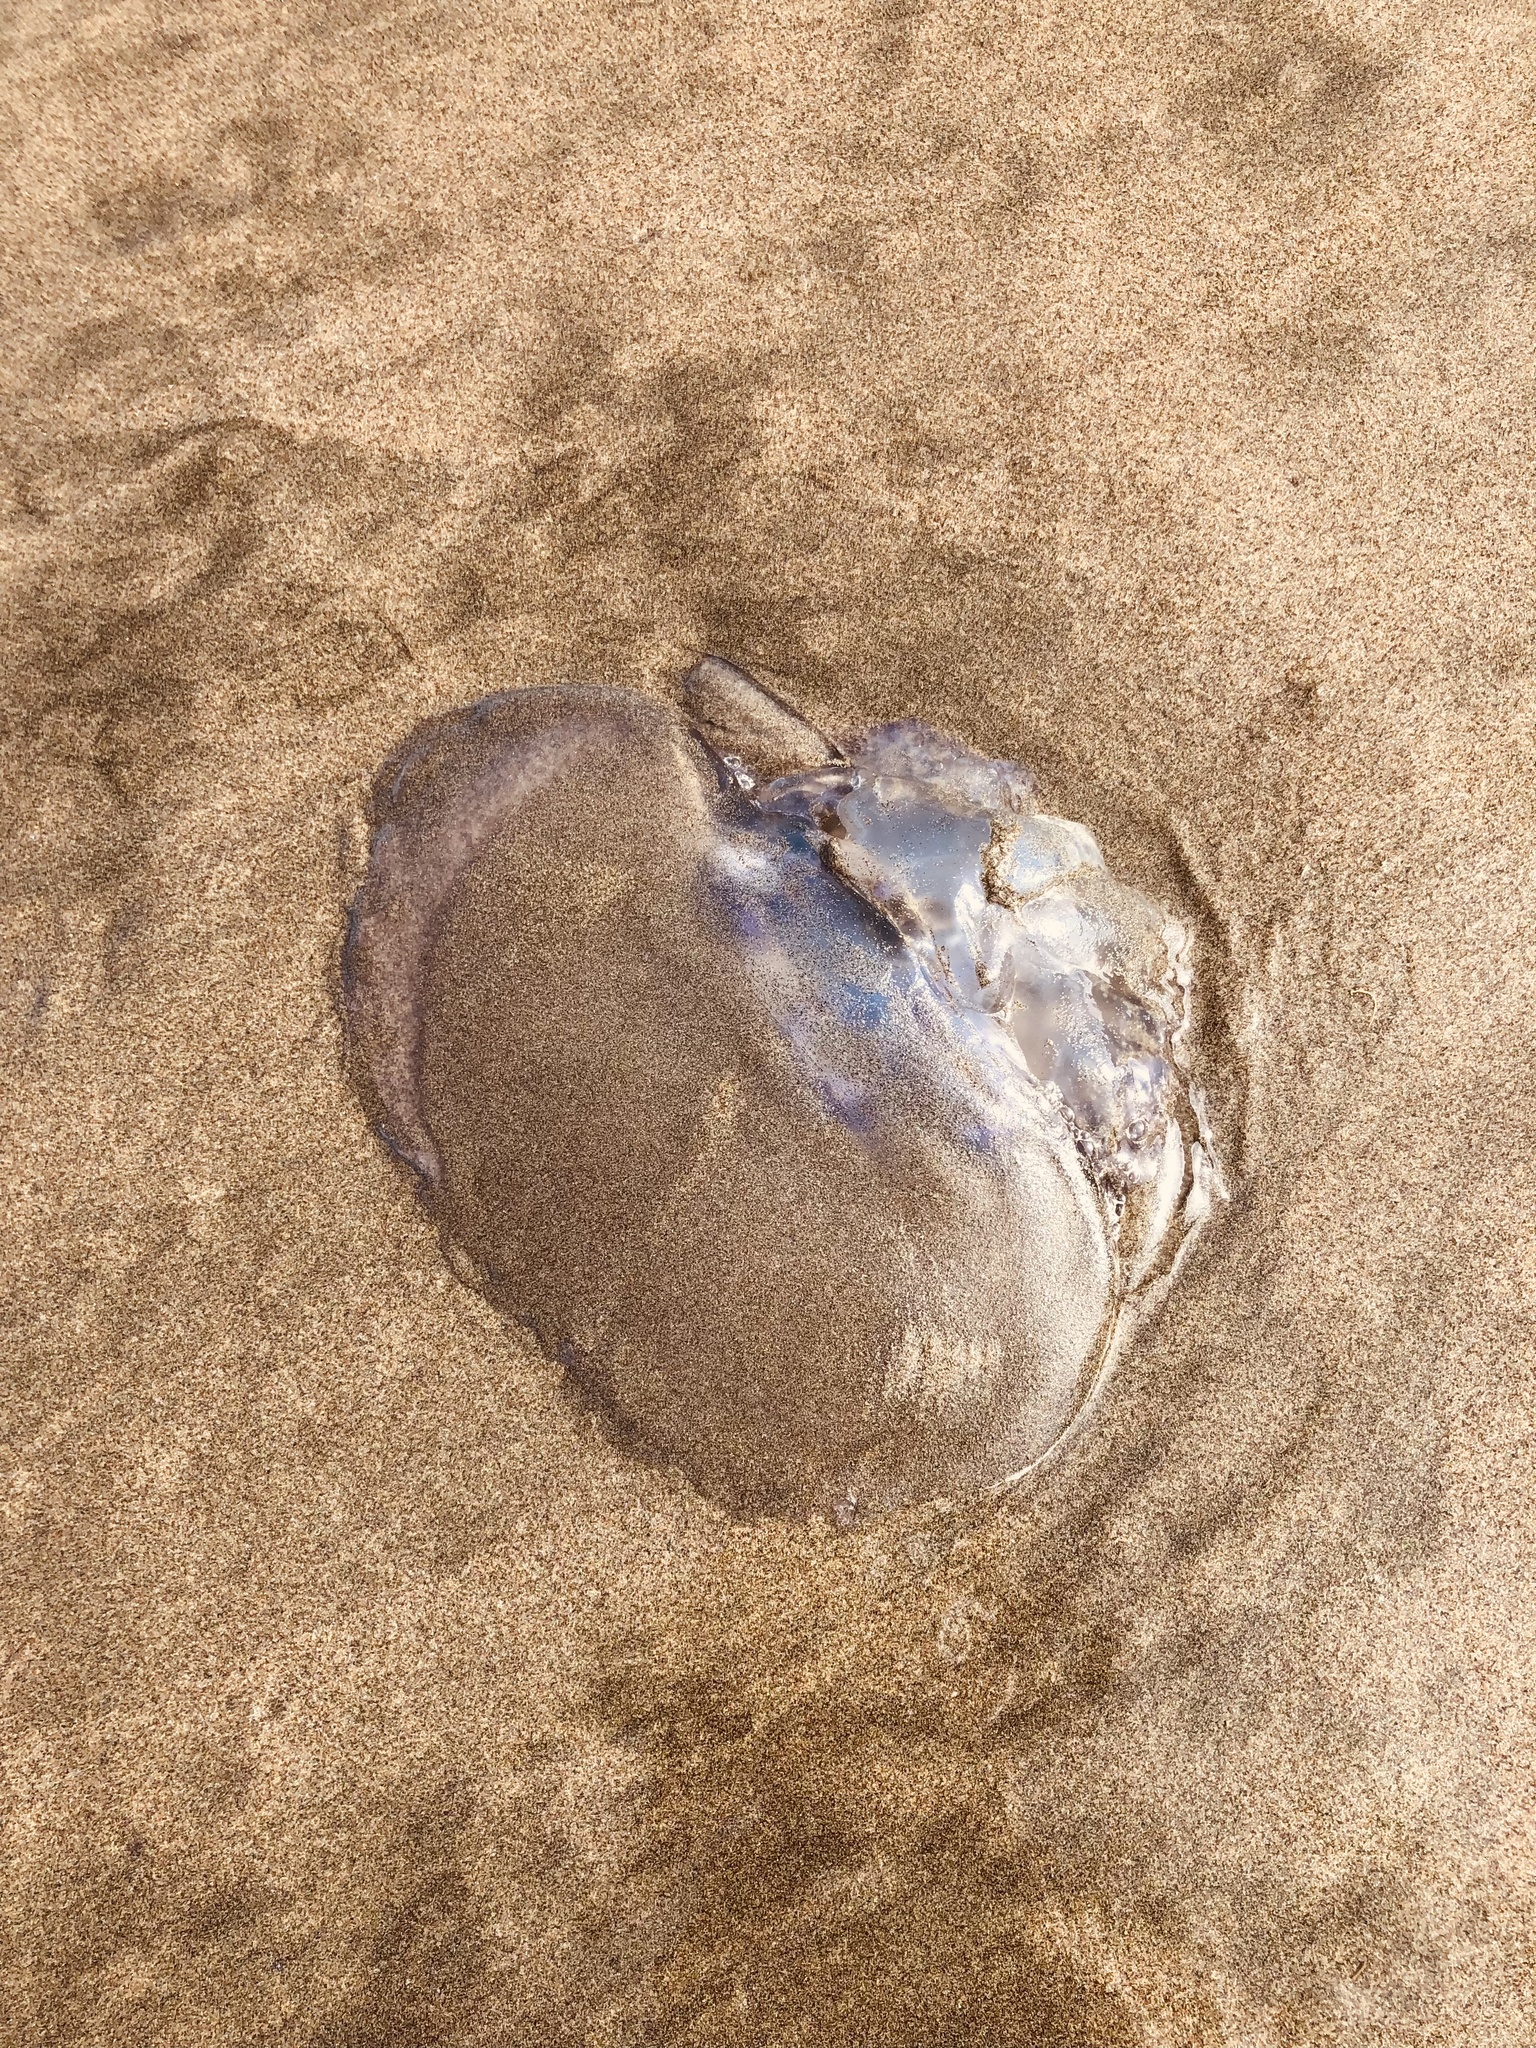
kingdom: Animalia
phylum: Cnidaria
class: Scyphozoa
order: Semaeostomeae
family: Ulmaridae
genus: Aurelia
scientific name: Aurelia labiata
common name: Pacific moon jelly
